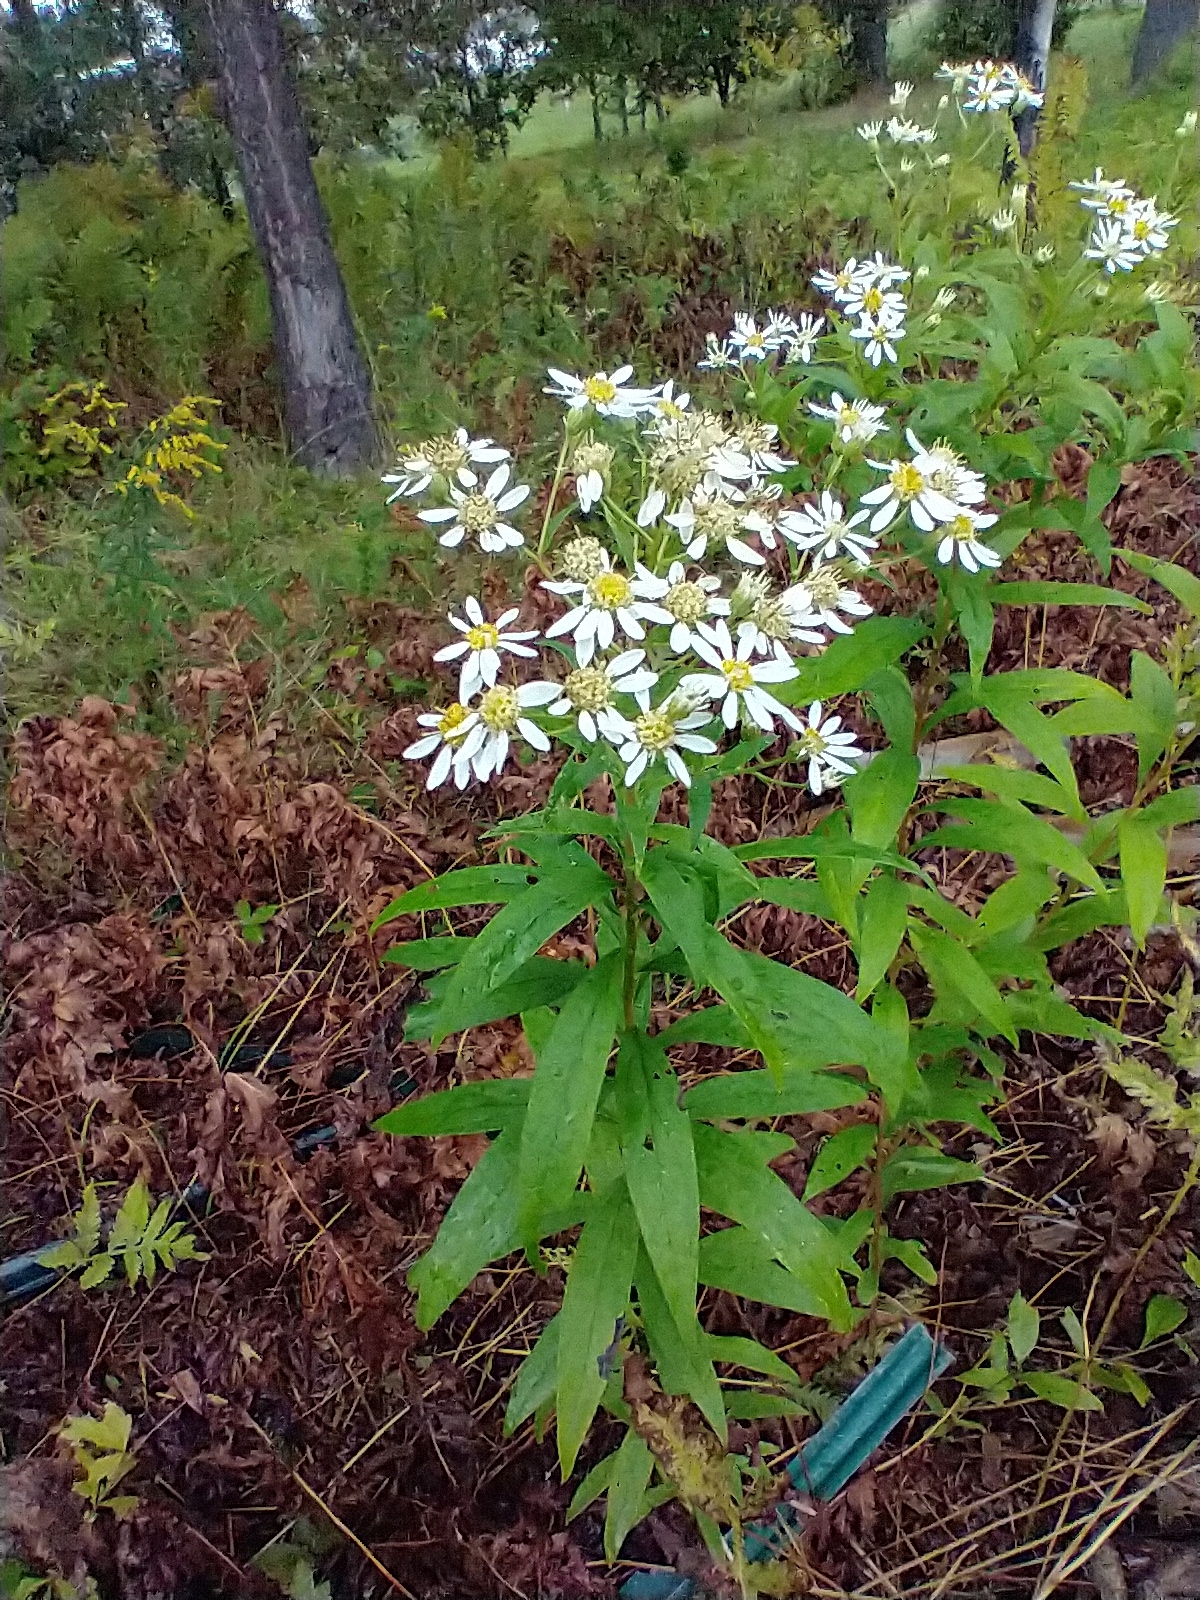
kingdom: Plantae
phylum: Tracheophyta
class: Magnoliopsida
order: Asterales
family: Asteraceae
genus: Doellingeria
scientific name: Doellingeria umbellata
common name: Flat-top white aster
